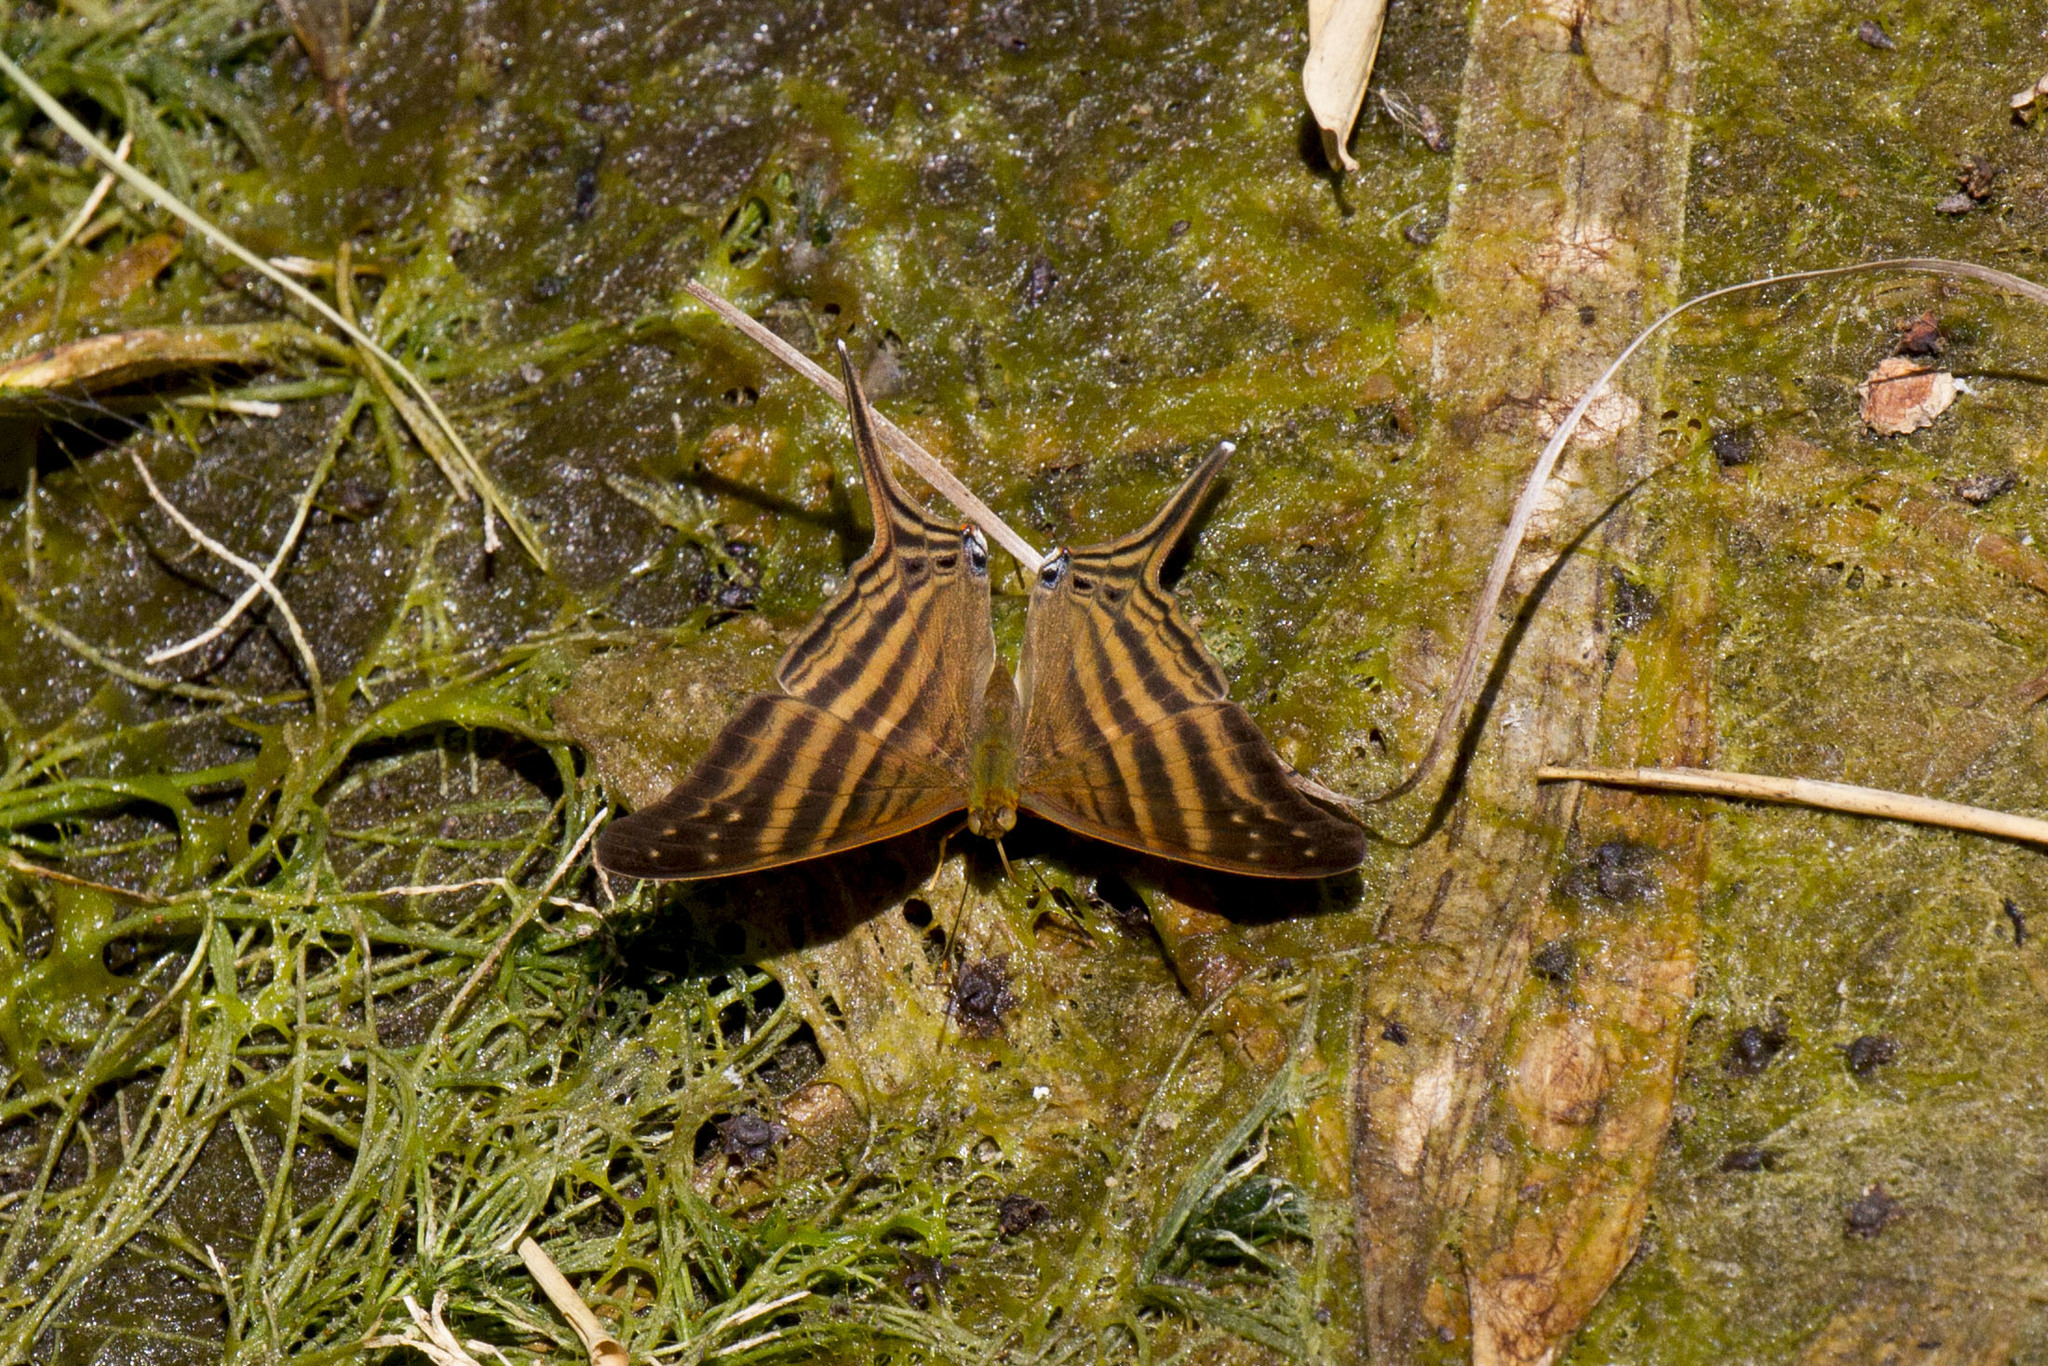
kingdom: Animalia
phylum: Arthropoda
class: Insecta
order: Lepidoptera
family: Nymphalidae
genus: Marpesia
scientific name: Marpesia chiron
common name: Many-banded daggerwing
